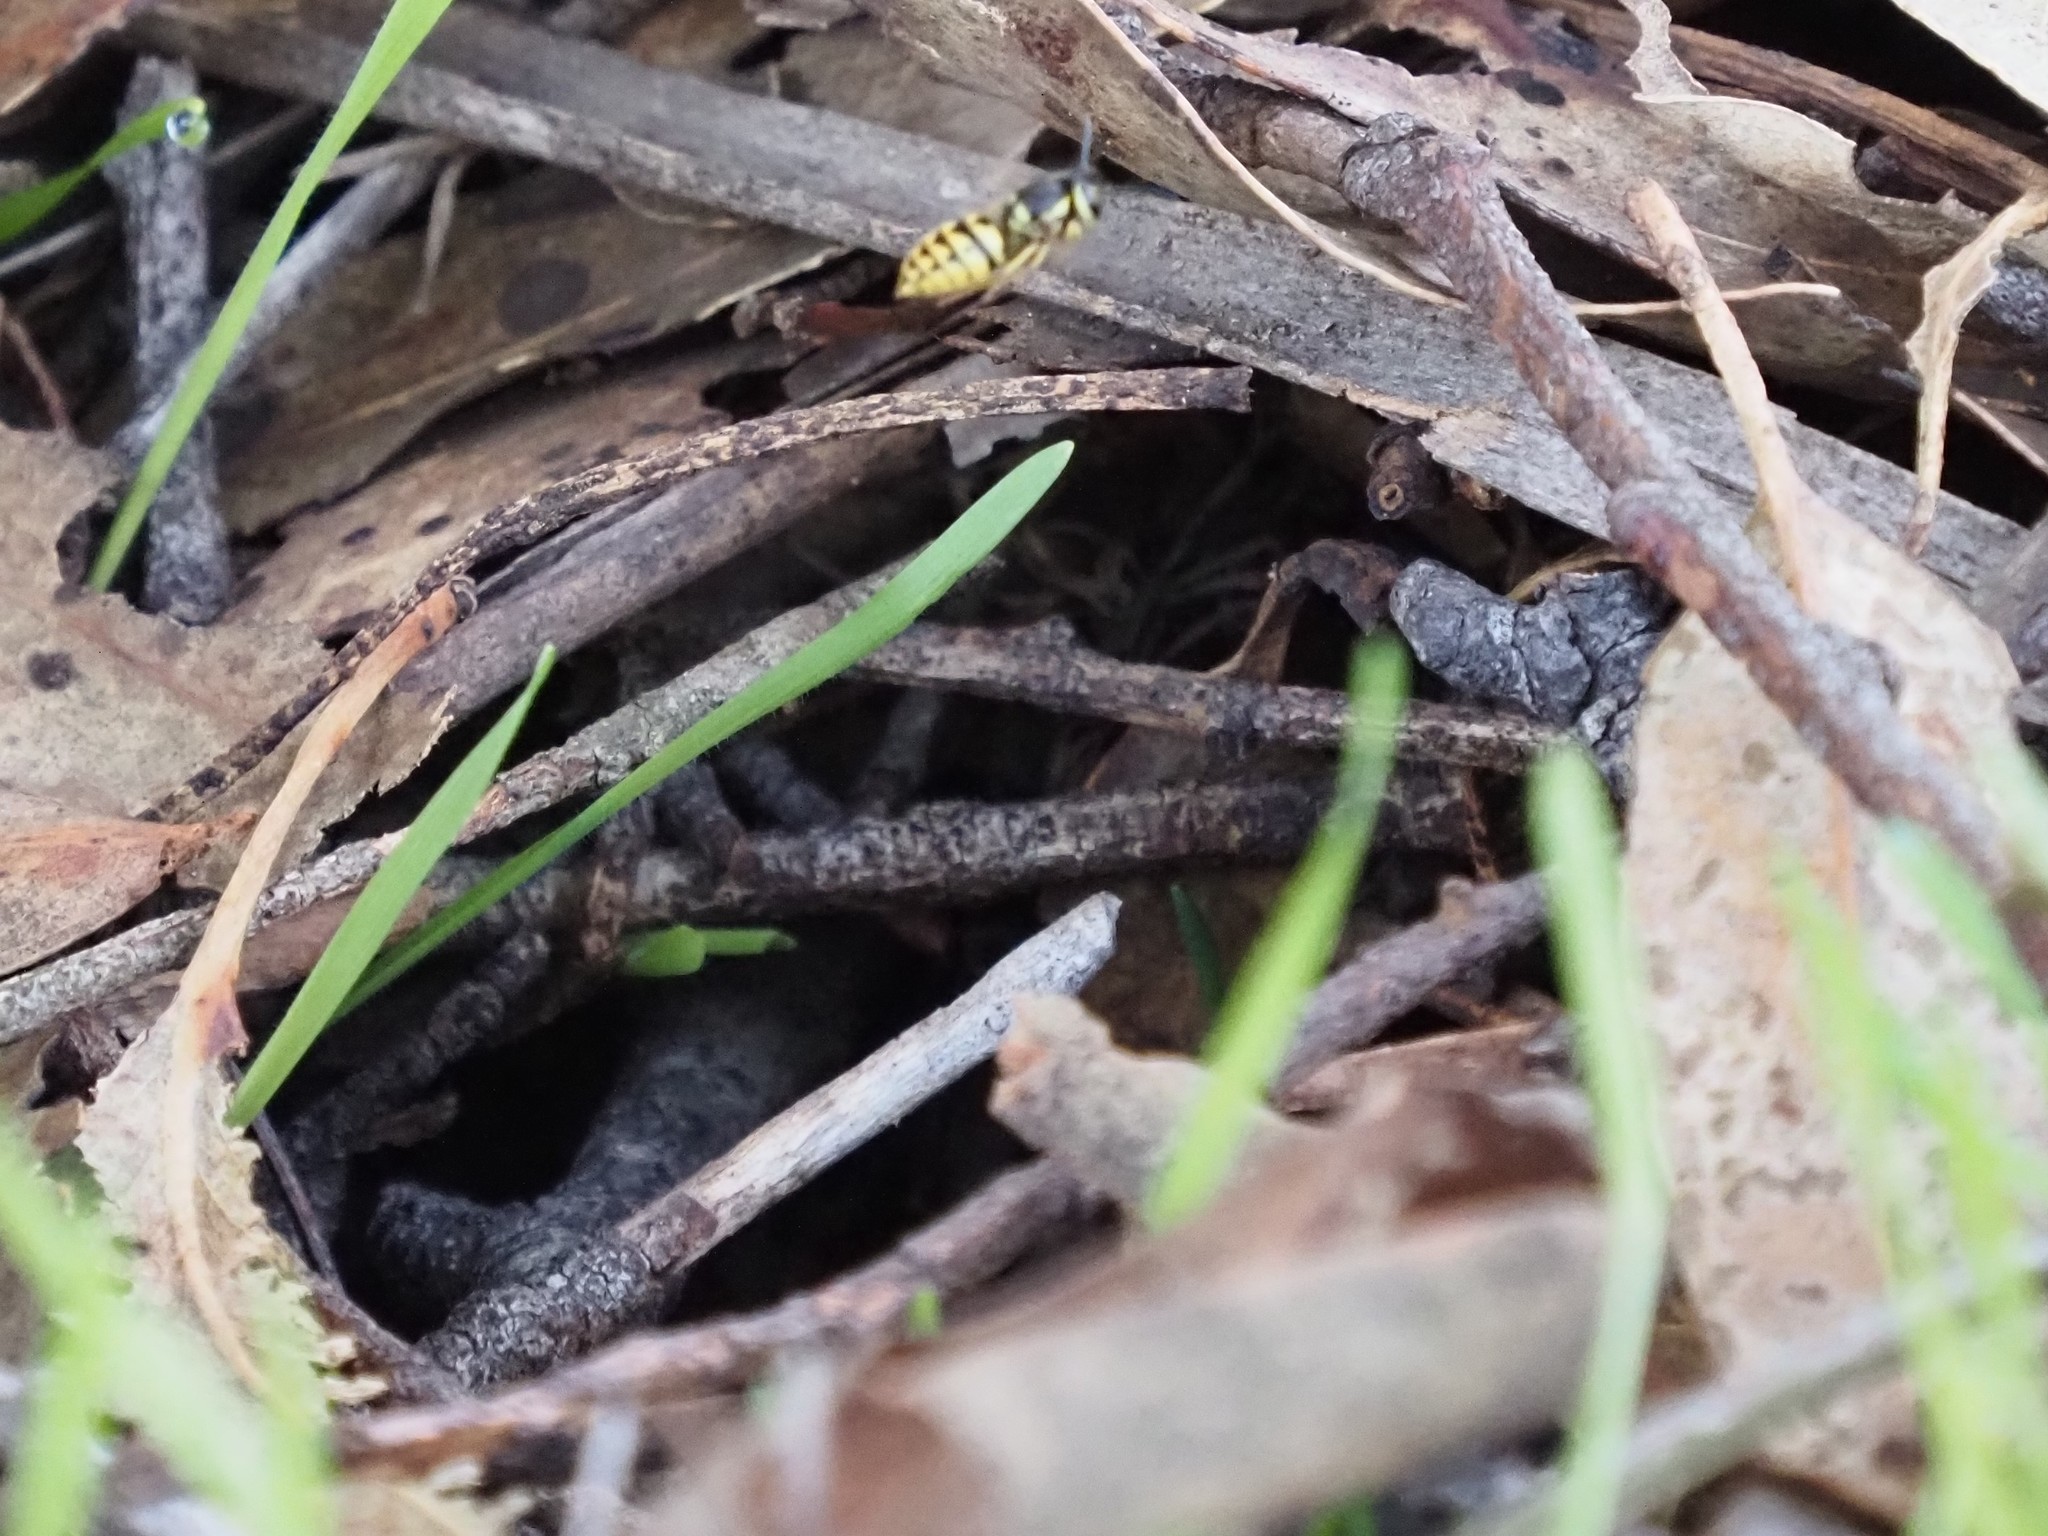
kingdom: Animalia
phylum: Arthropoda
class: Insecta
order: Hymenoptera
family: Vespidae
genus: Vespula
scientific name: Vespula pensylvanica
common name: Western yellowjacket
